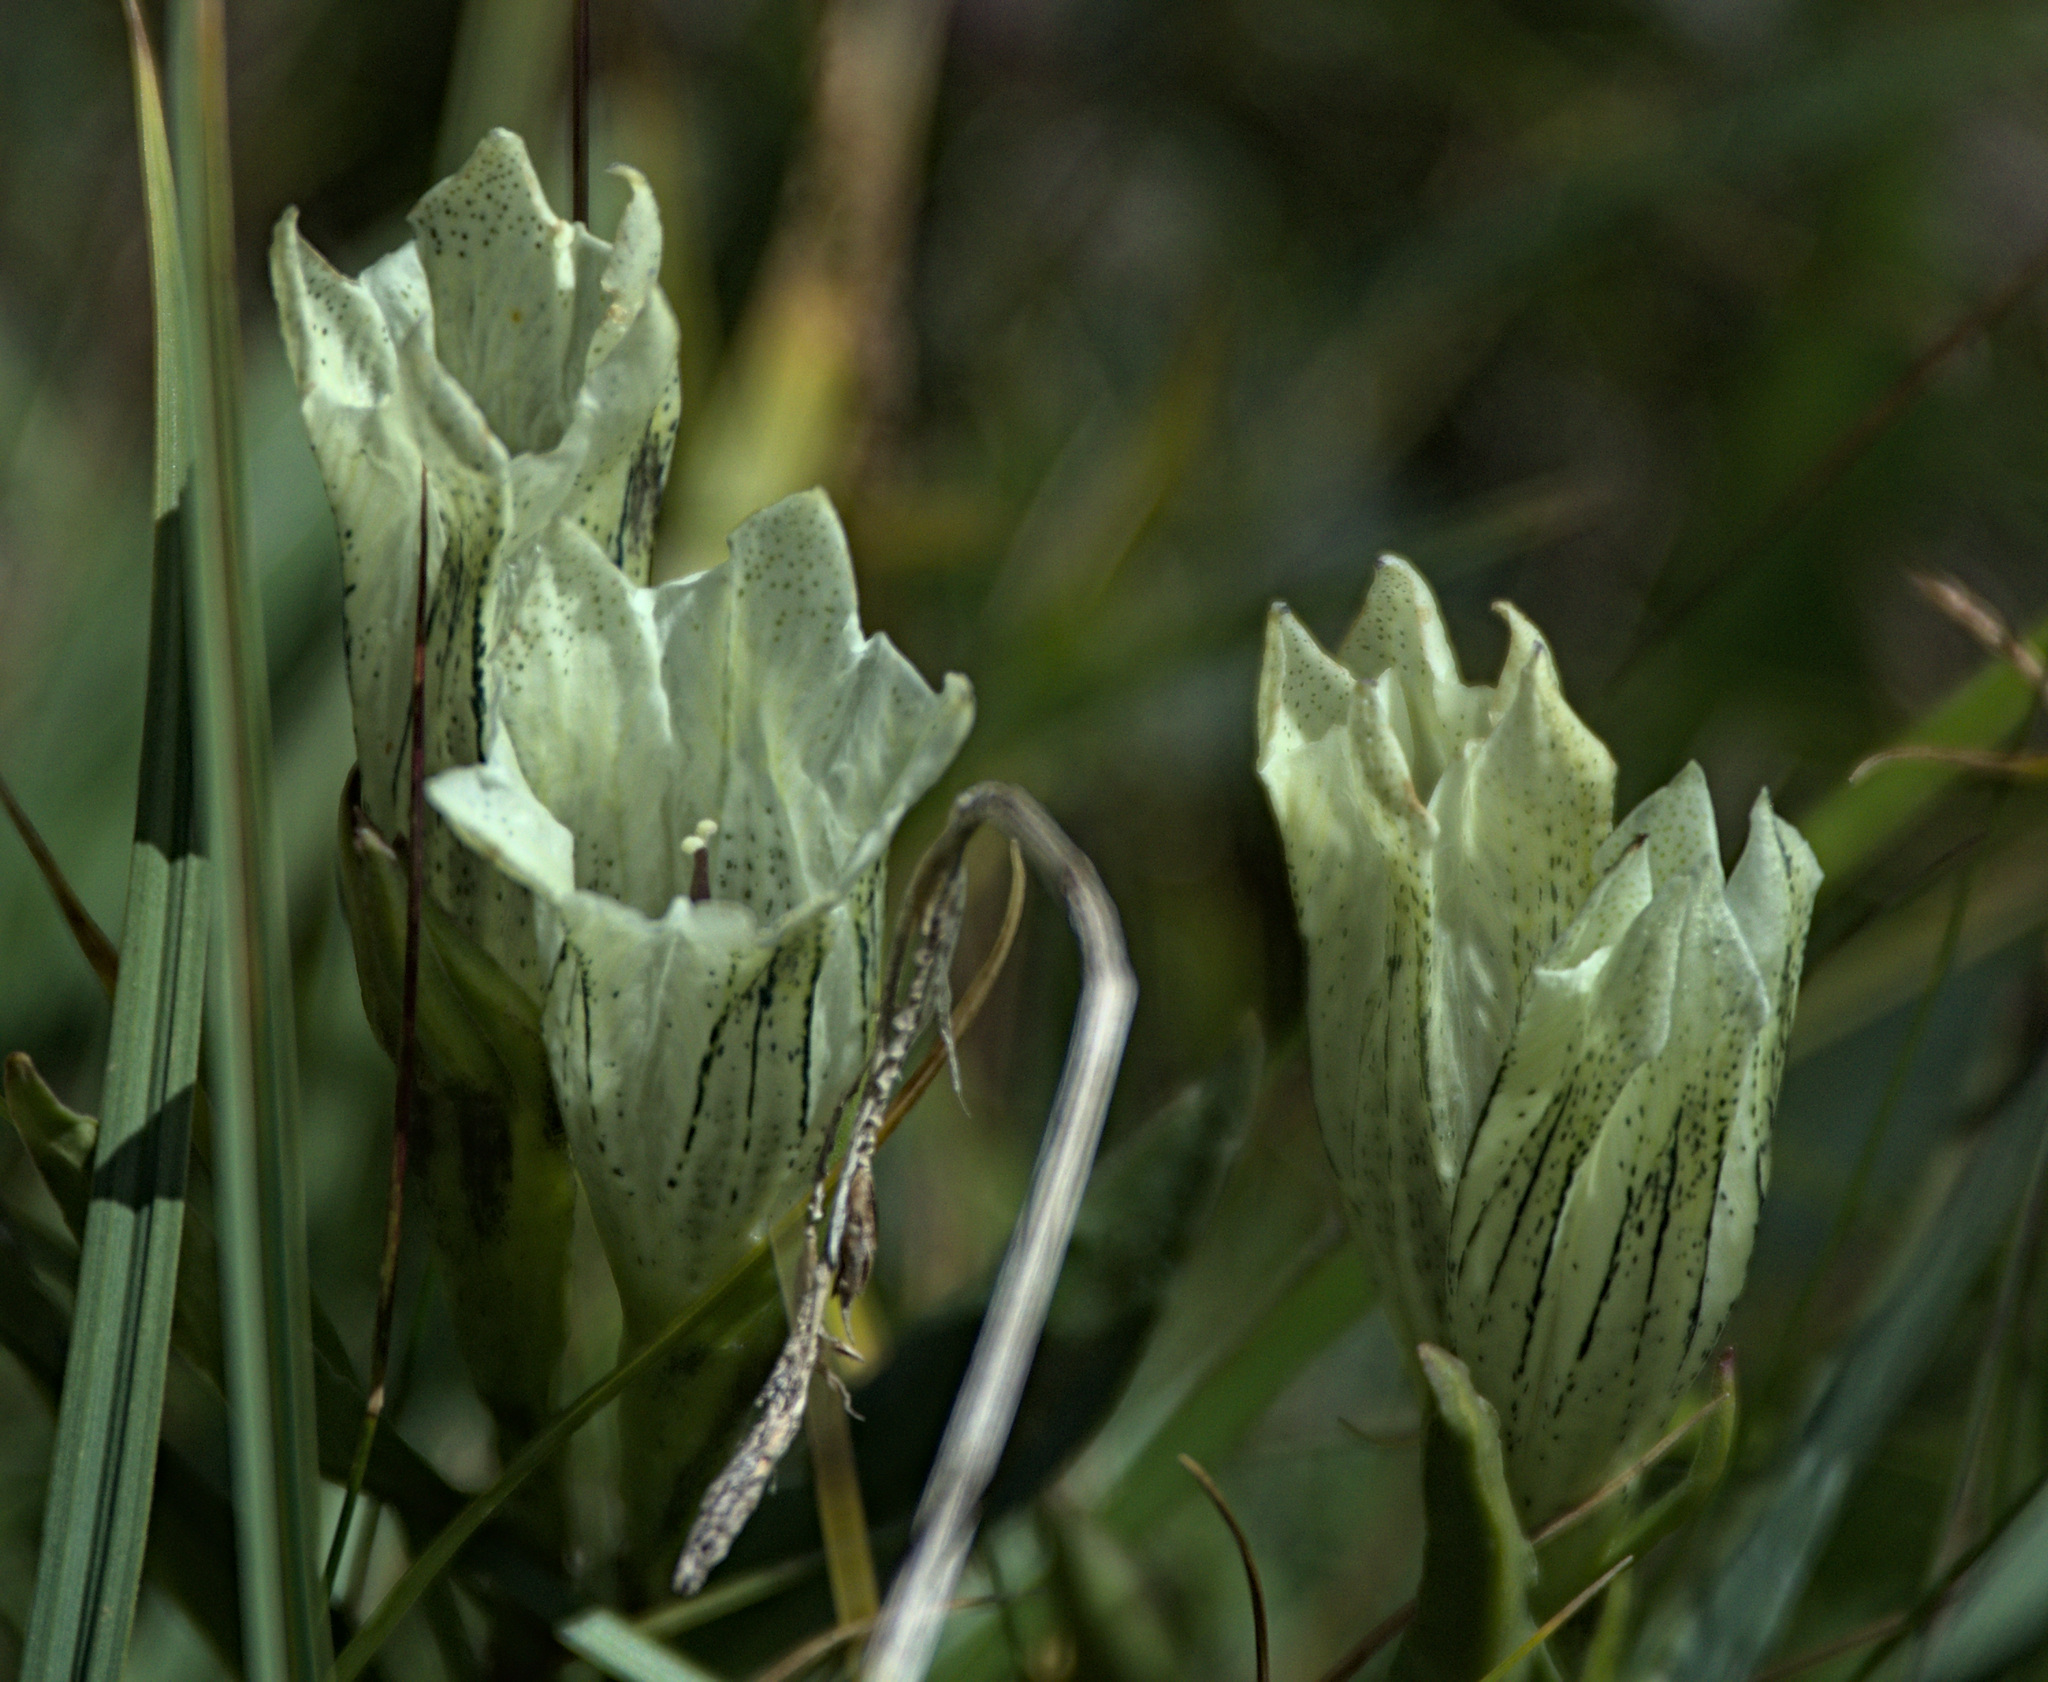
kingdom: Plantae
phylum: Tracheophyta
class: Magnoliopsida
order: Gentianales
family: Gentianaceae
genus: Gentiana
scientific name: Gentiana algida
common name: Arctic gentian
